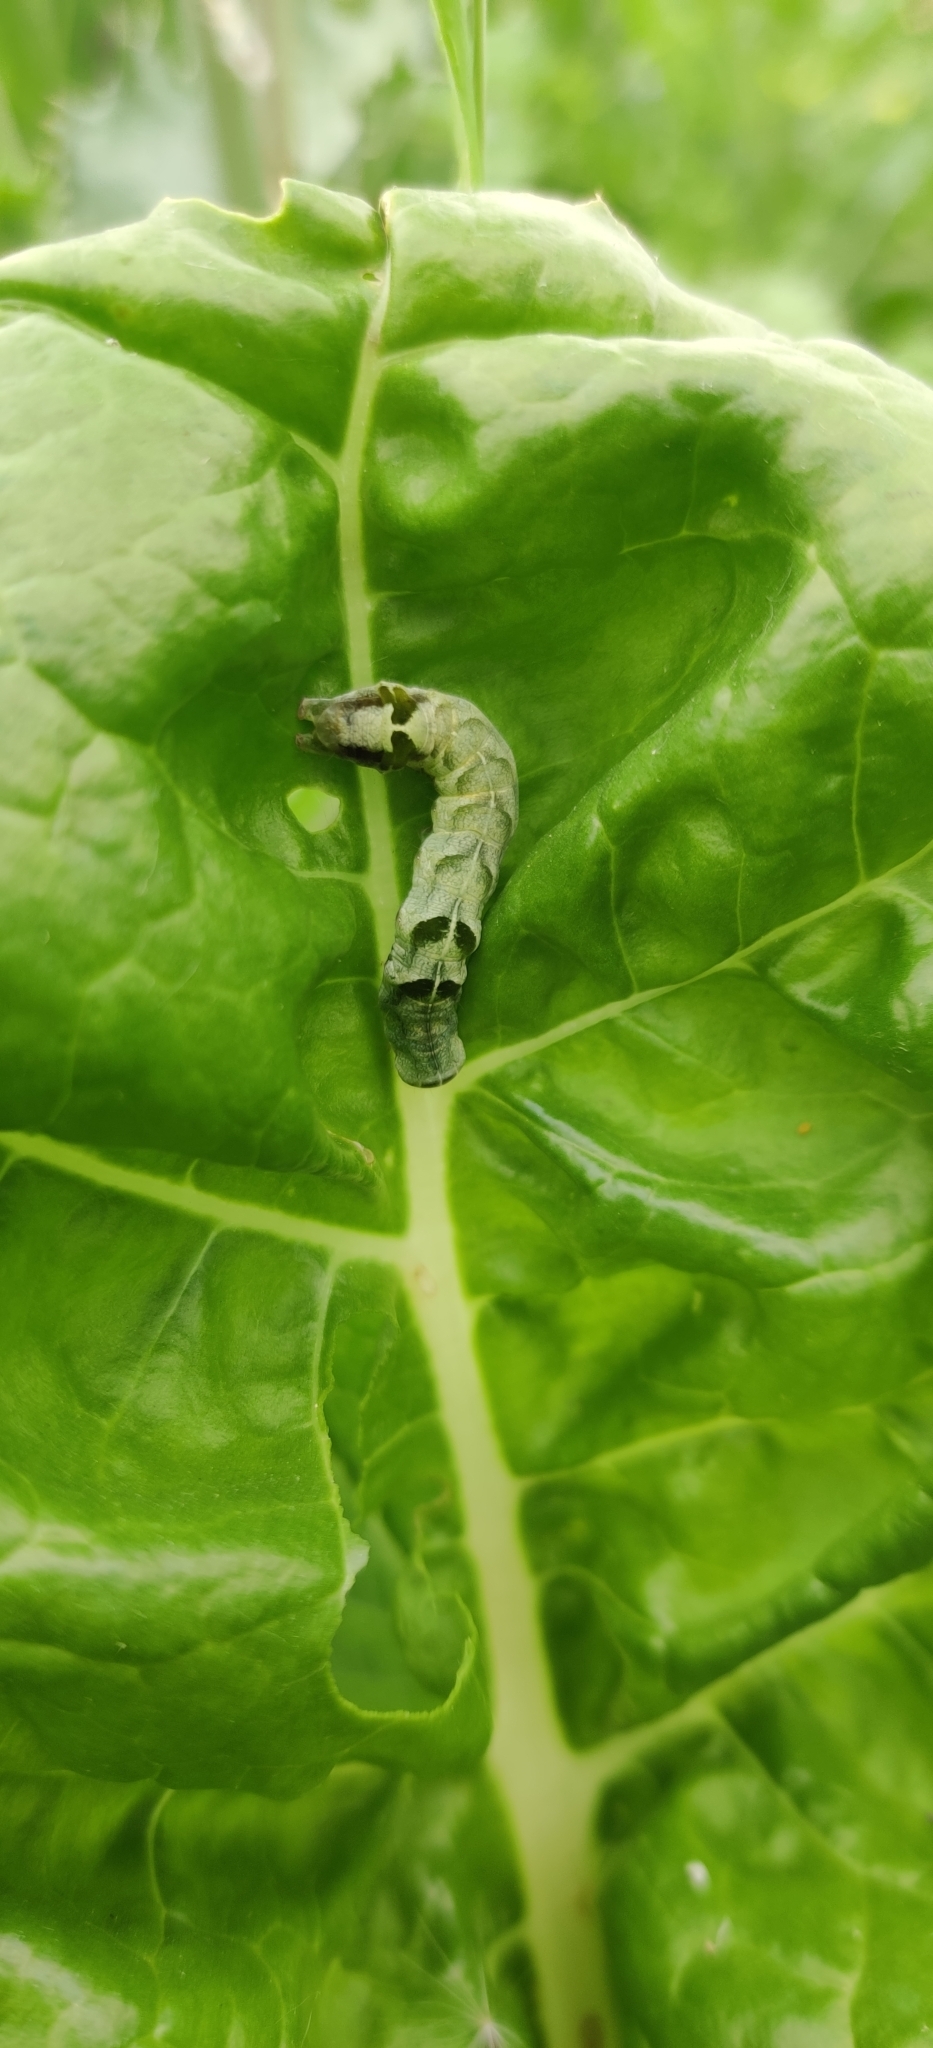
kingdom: Animalia
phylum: Arthropoda
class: Insecta
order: Lepidoptera
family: Noctuidae
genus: Melanchra
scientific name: Melanchra adjuncta
